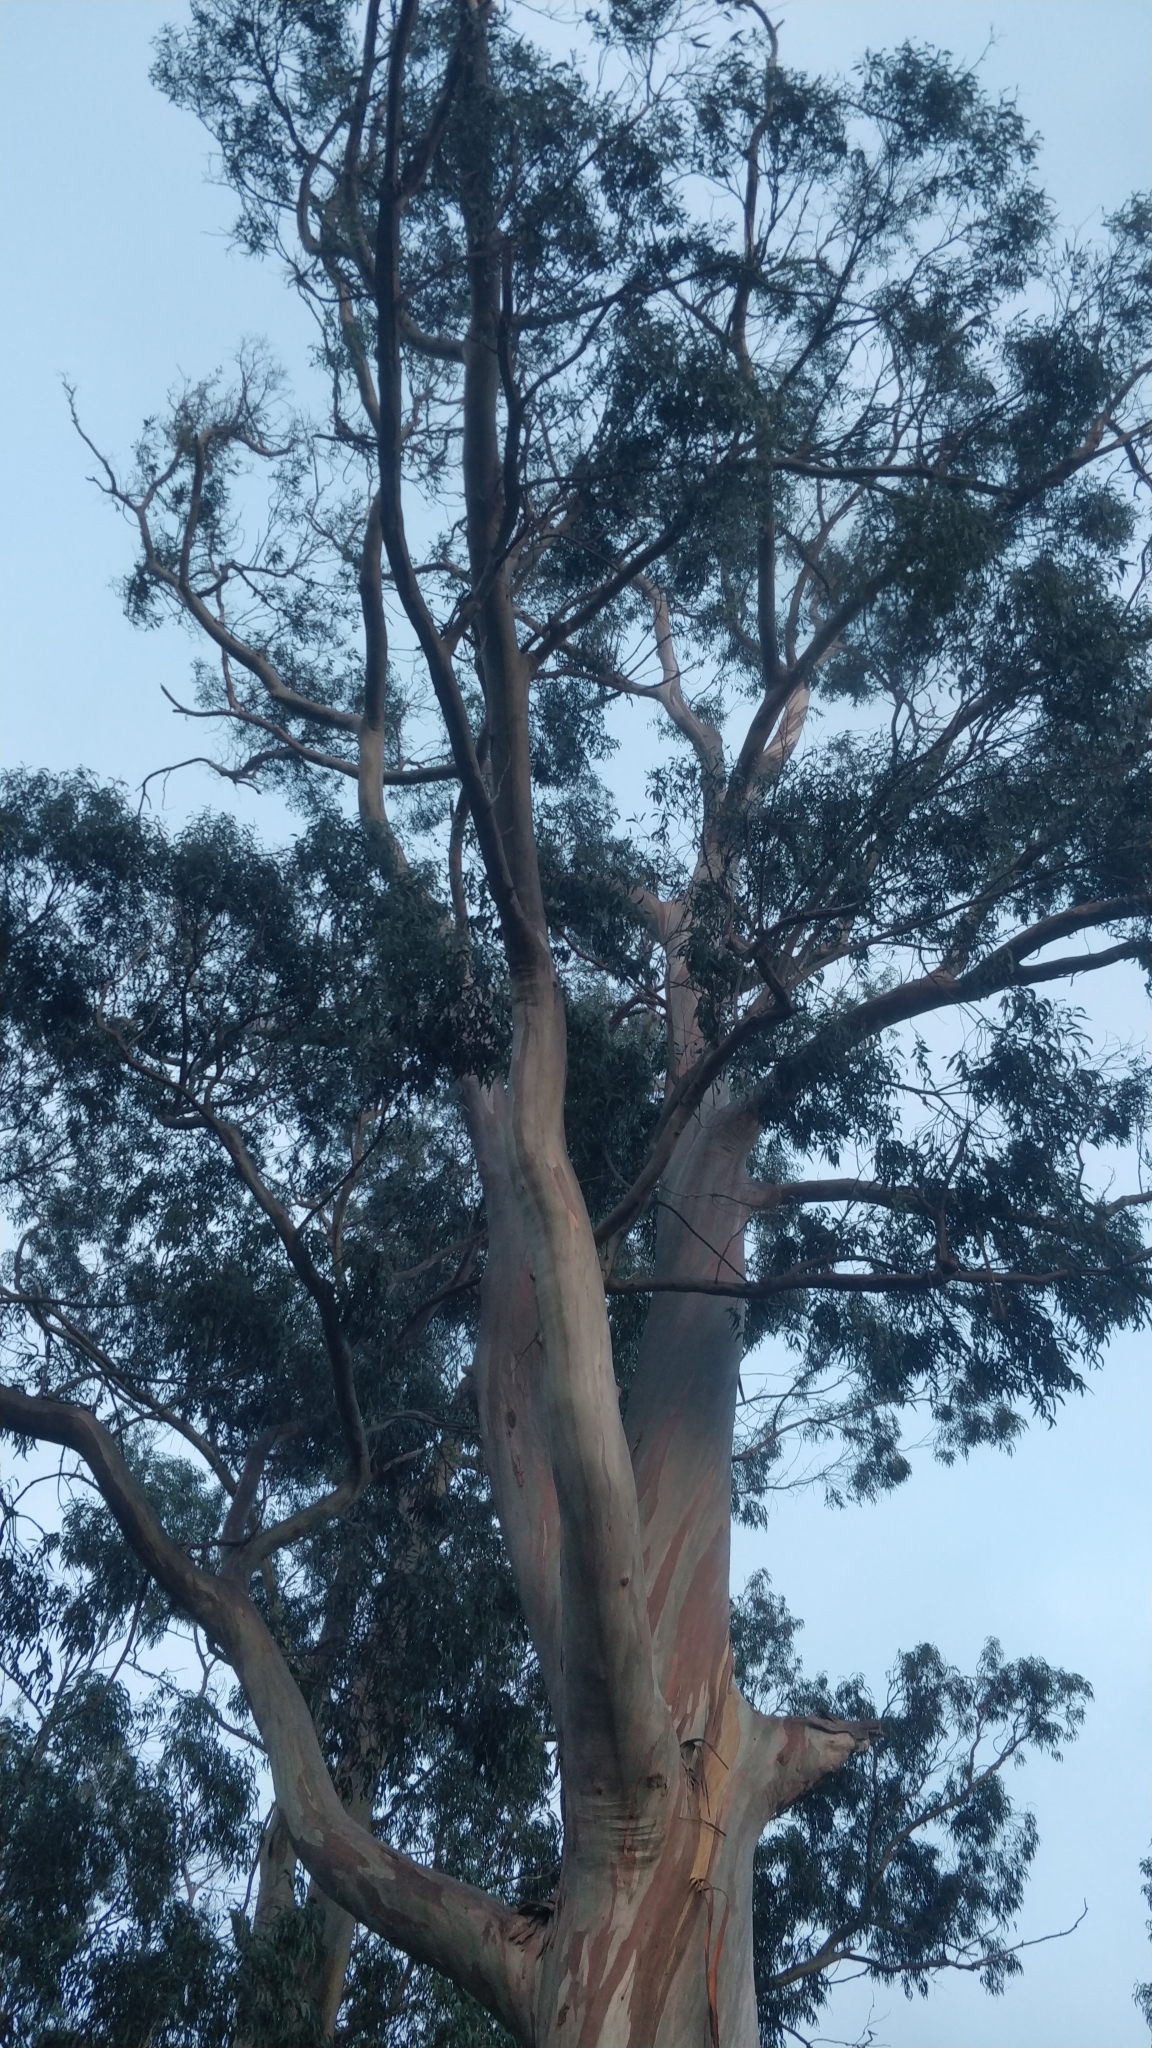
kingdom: Plantae
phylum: Tracheophyta
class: Magnoliopsida
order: Myrtales
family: Myrtaceae
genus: Eucalyptus
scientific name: Eucalyptus globulus
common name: Southern blue-gum
